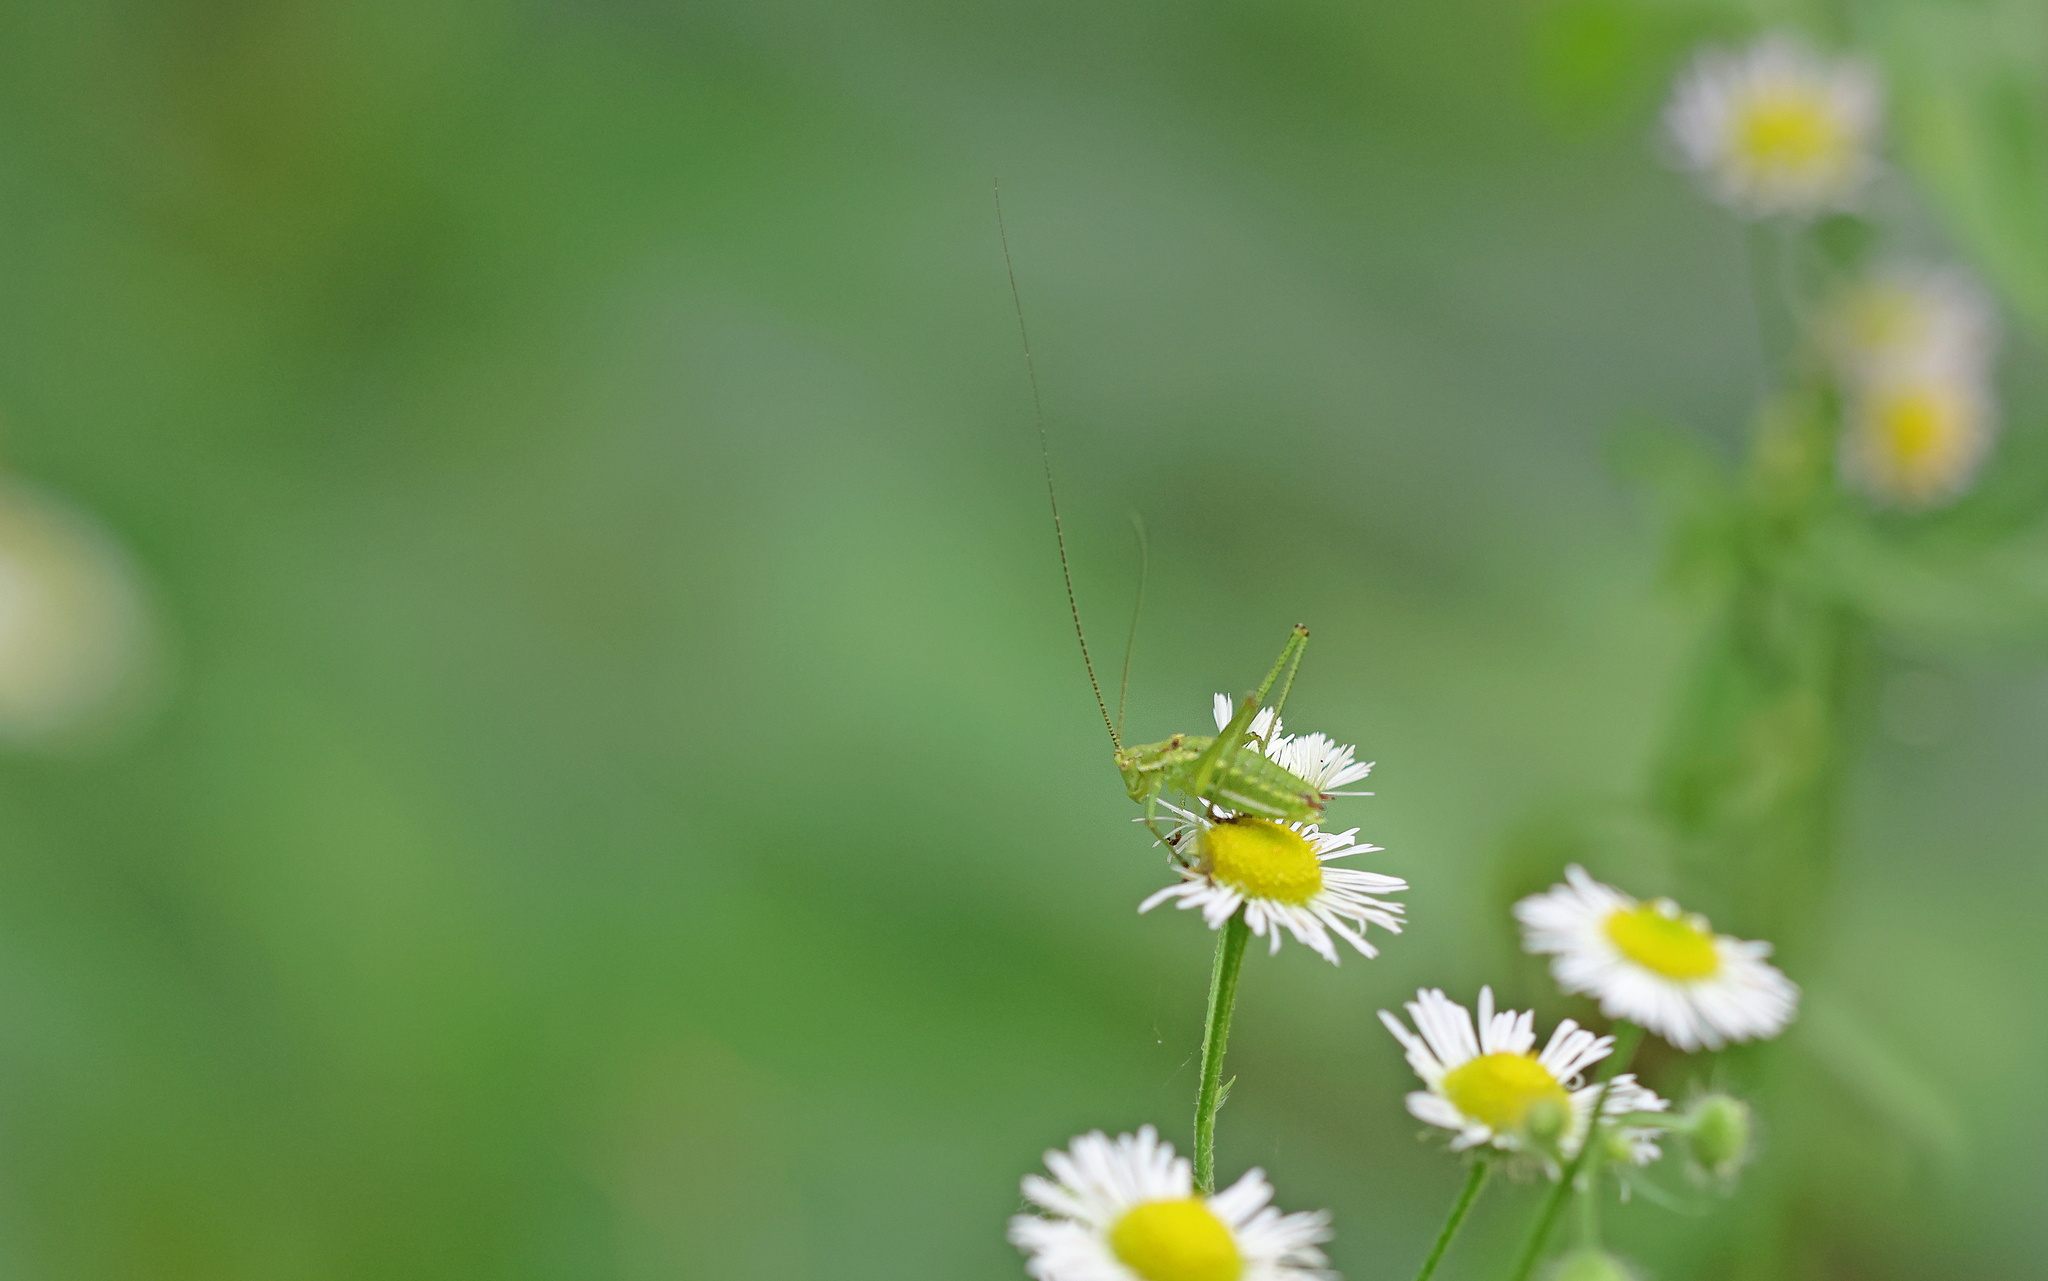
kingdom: Animalia
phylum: Arthropoda
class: Insecta
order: Orthoptera
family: Tettigoniidae
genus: Leptophyes
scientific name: Leptophyes albovittata
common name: Striped bush-cricket
